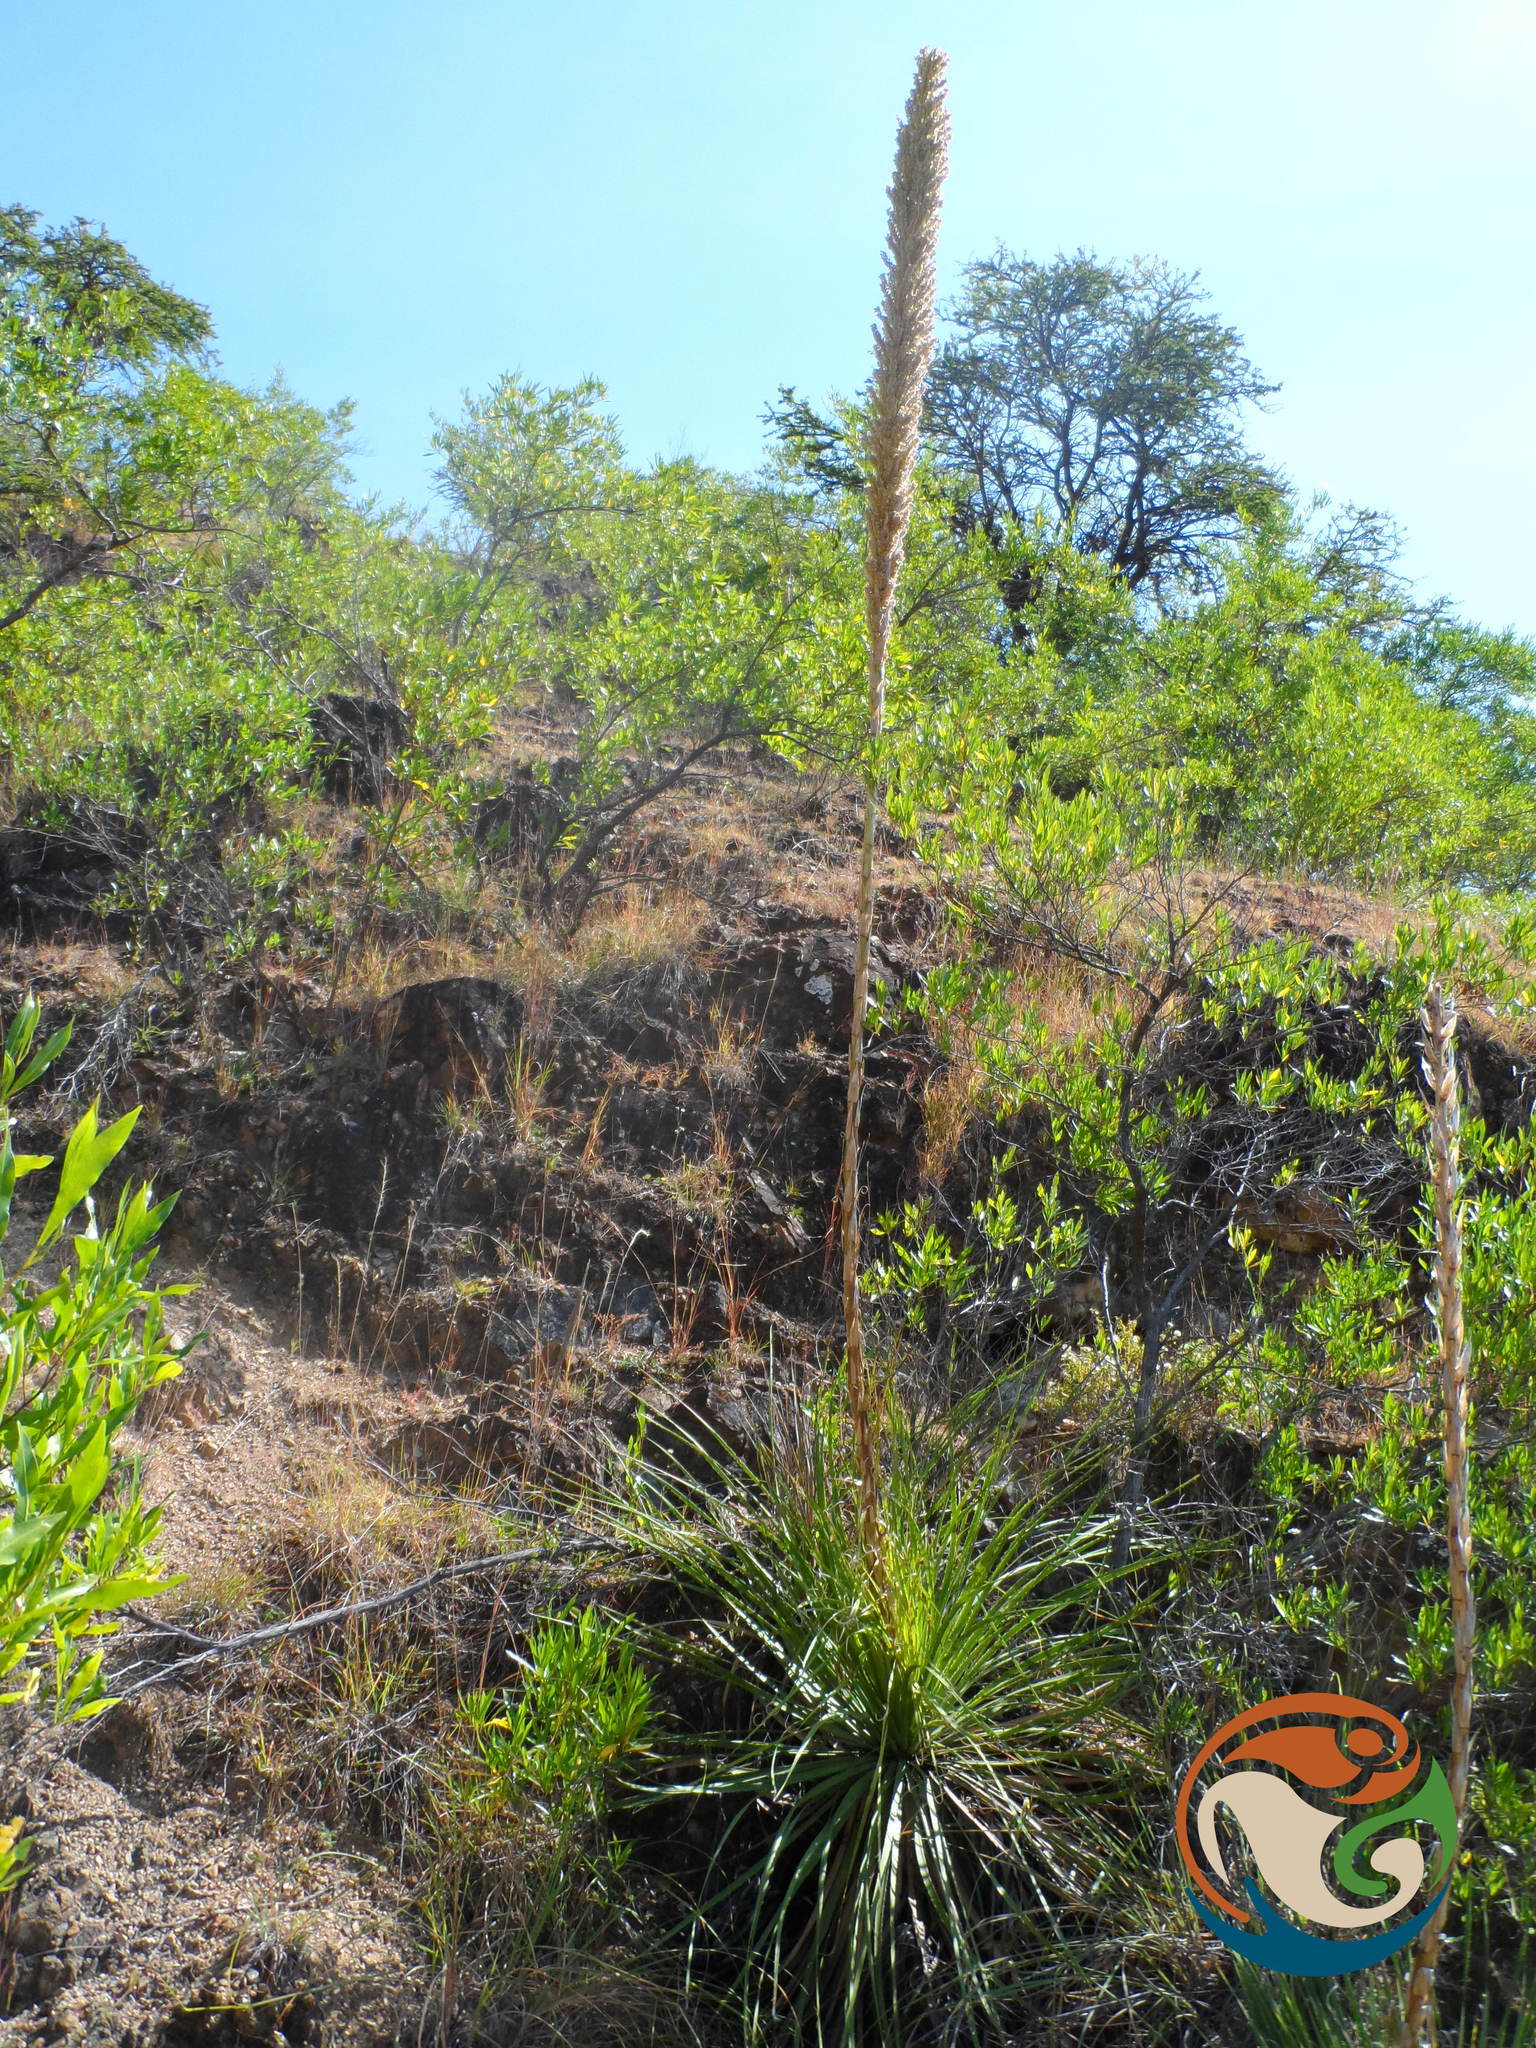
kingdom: Plantae
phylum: Tracheophyta
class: Liliopsida
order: Asparagales
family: Asparagaceae
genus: Dasylirion
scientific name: Dasylirion serratifolium
